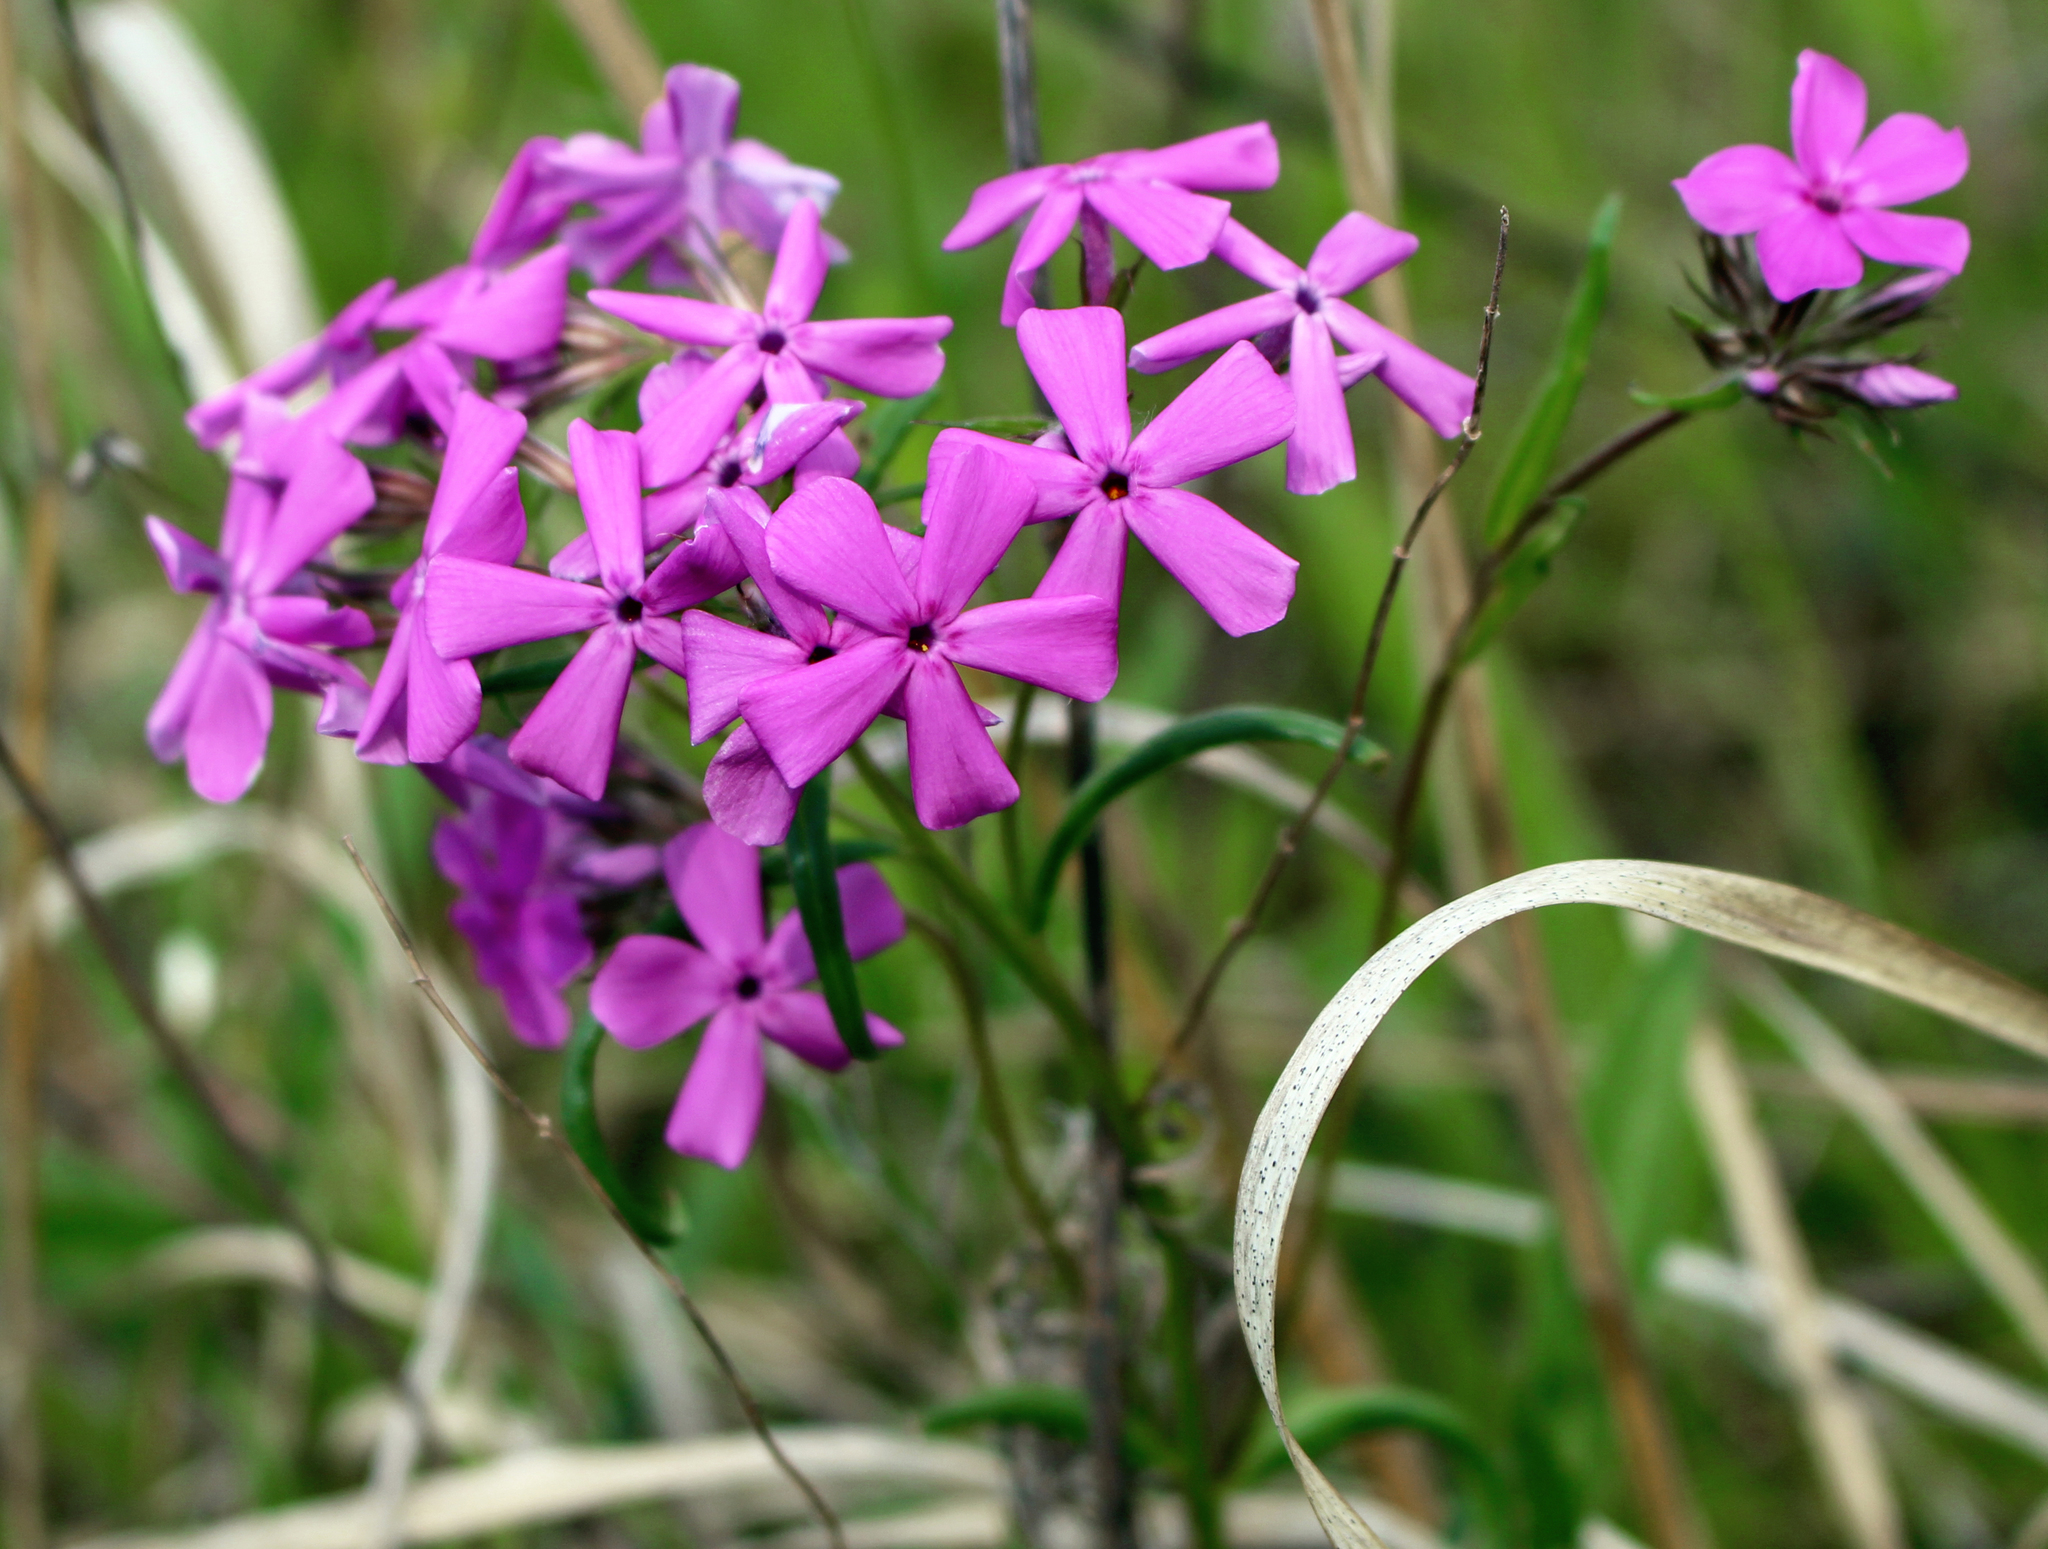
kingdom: Plantae
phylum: Tracheophyta
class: Magnoliopsida
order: Ericales
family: Polemoniaceae
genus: Phlox
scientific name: Phlox pilosa
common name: Prairie phlox
